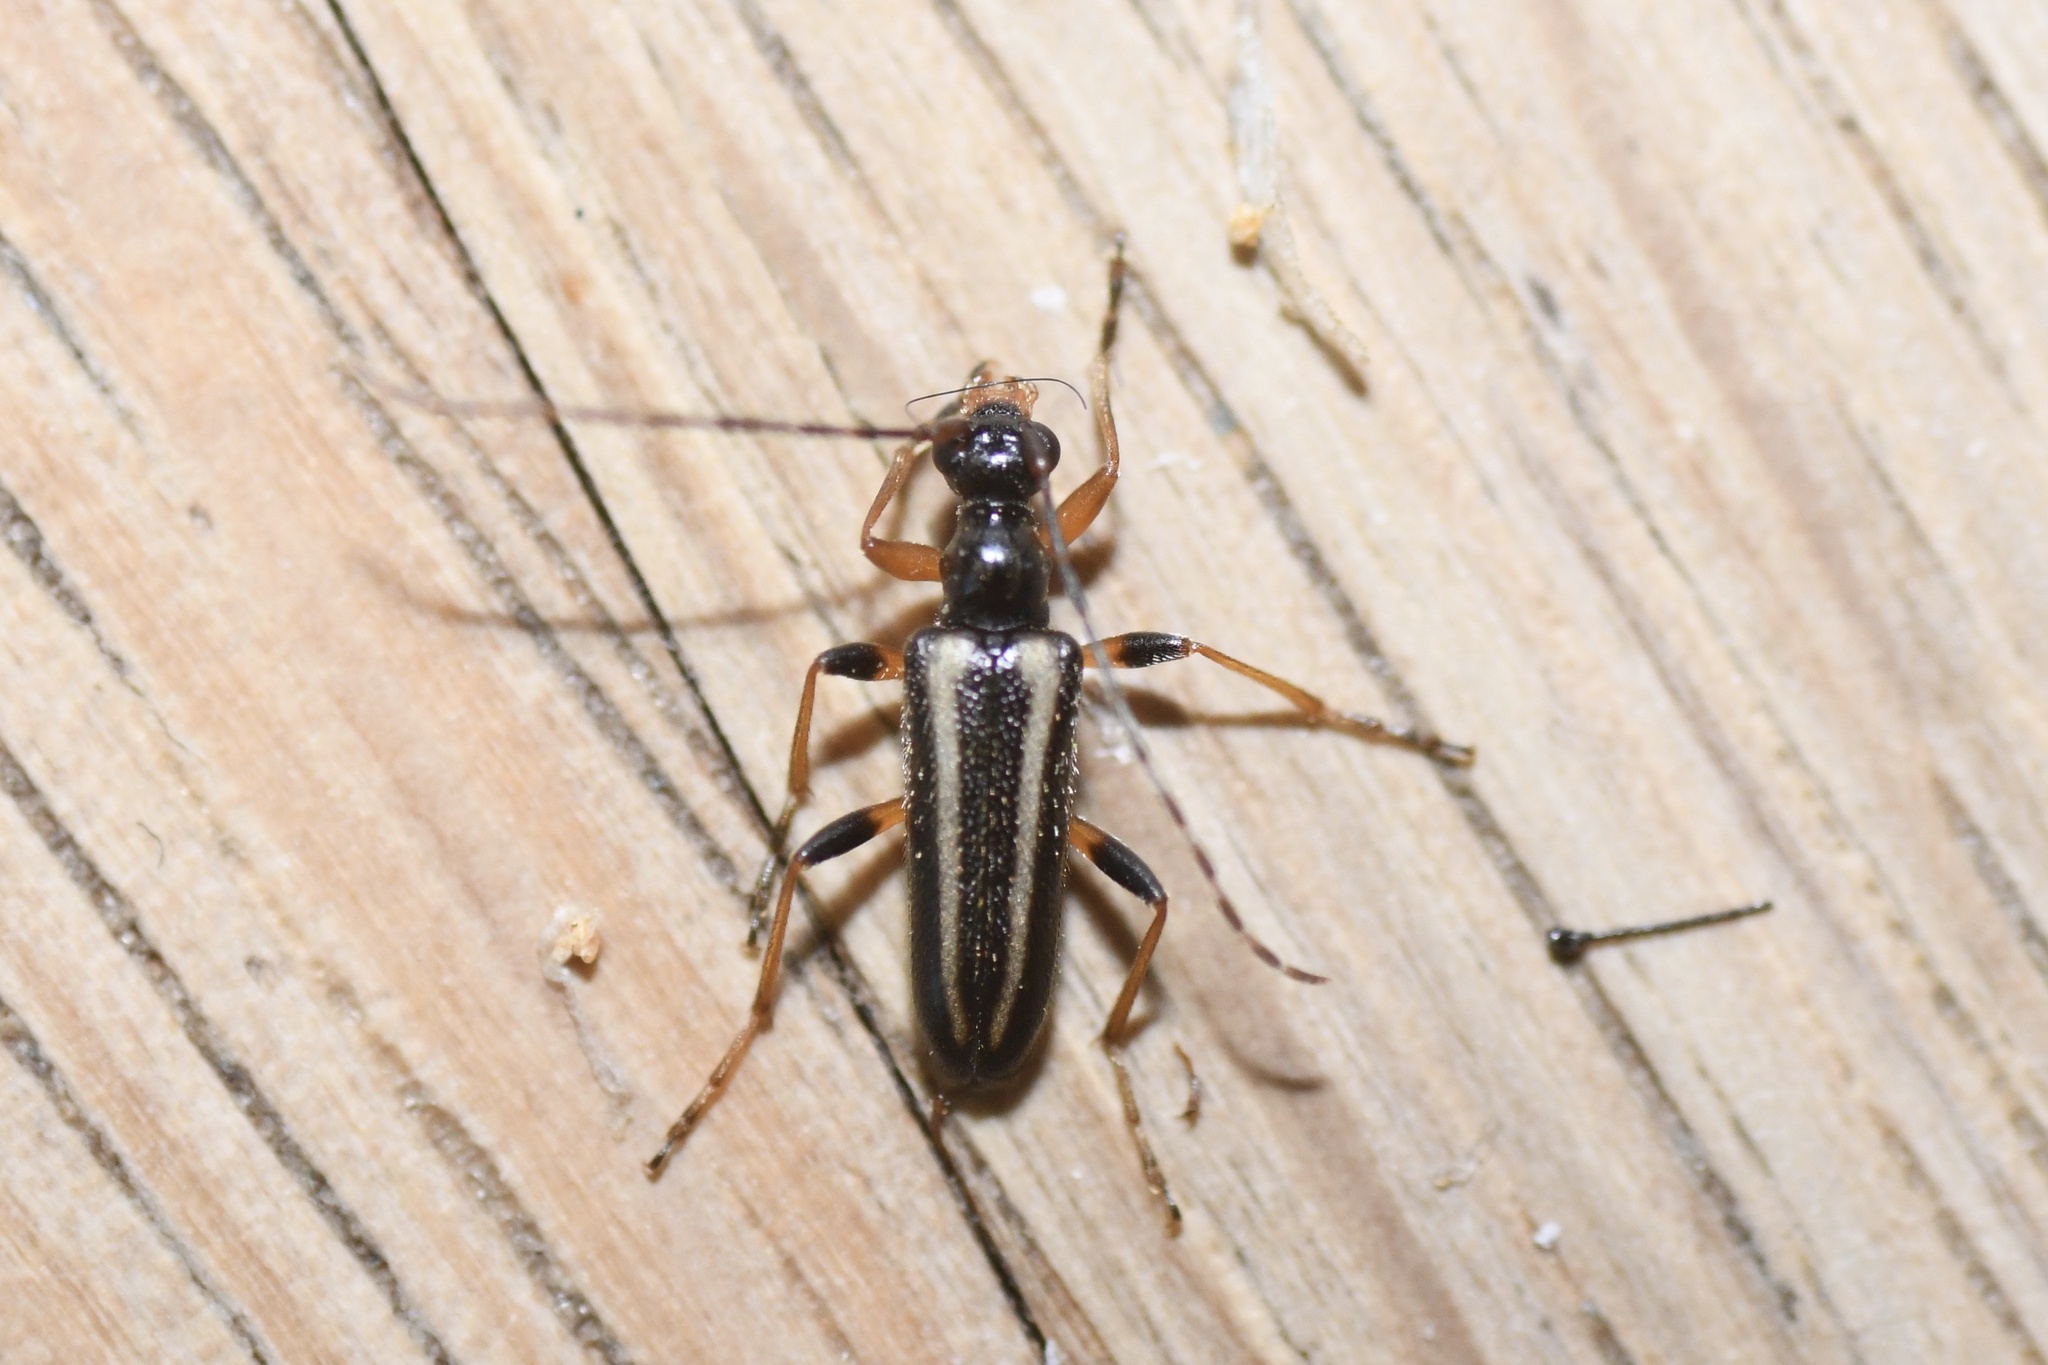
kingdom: Animalia
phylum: Arthropoda
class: Insecta
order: Coleoptera
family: Cerambycidae
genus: Pidonia
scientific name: Pidonia ruficollis
